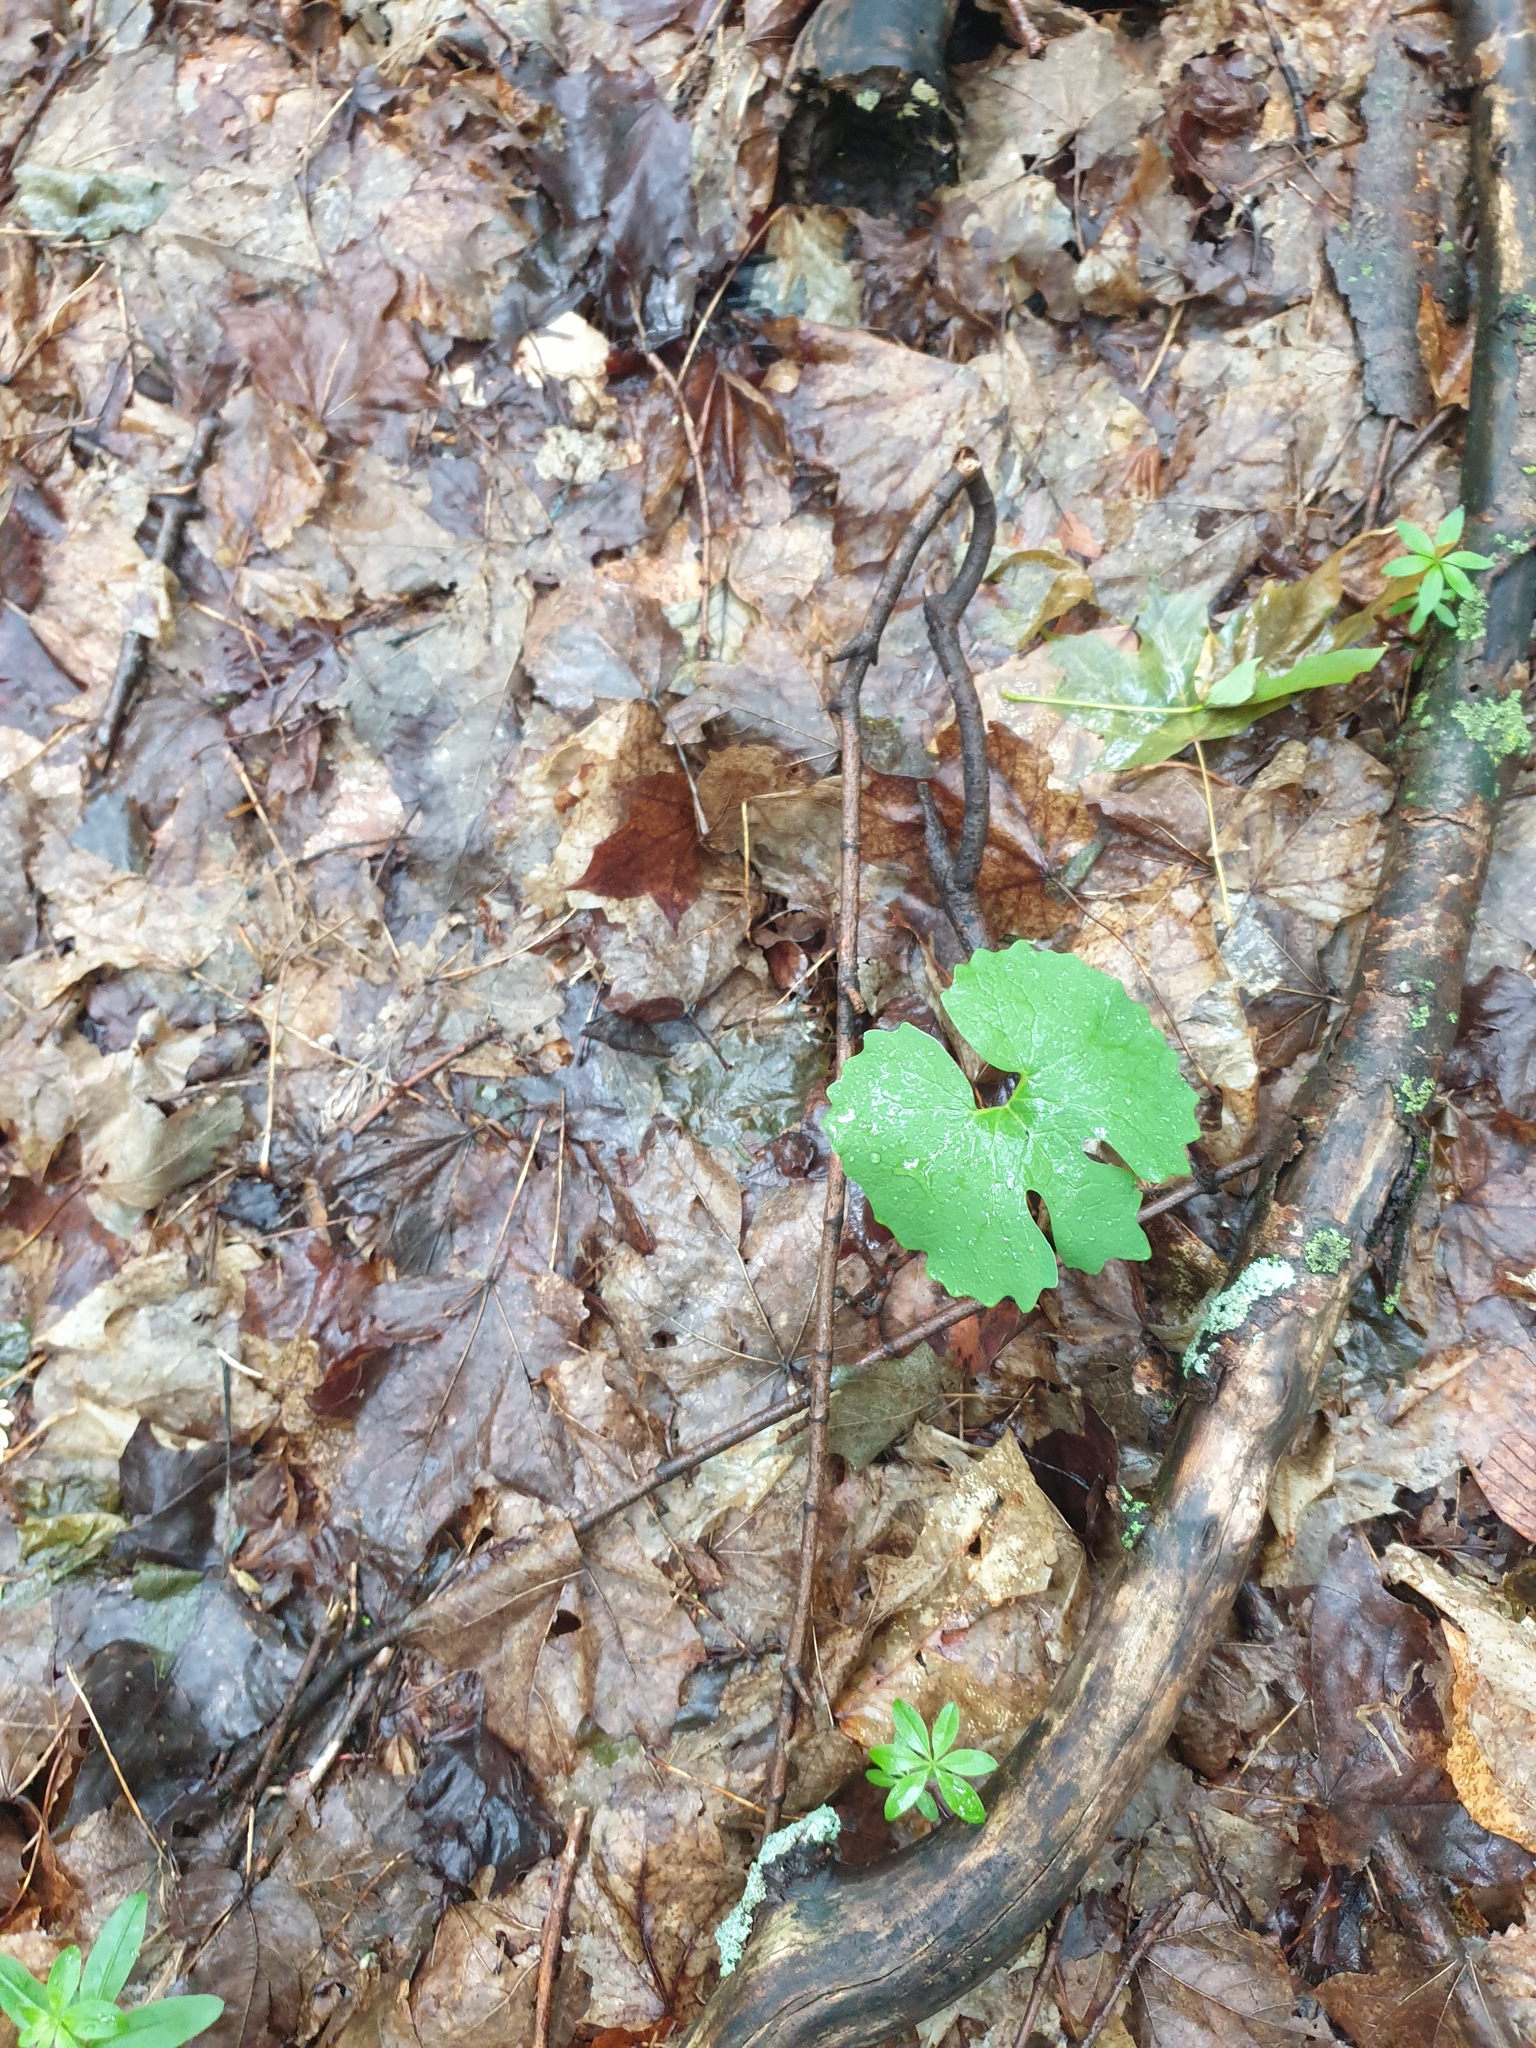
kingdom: Plantae
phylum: Tracheophyta
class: Magnoliopsida
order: Ranunculales
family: Papaveraceae
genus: Sanguinaria
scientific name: Sanguinaria canadensis
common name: Bloodroot
